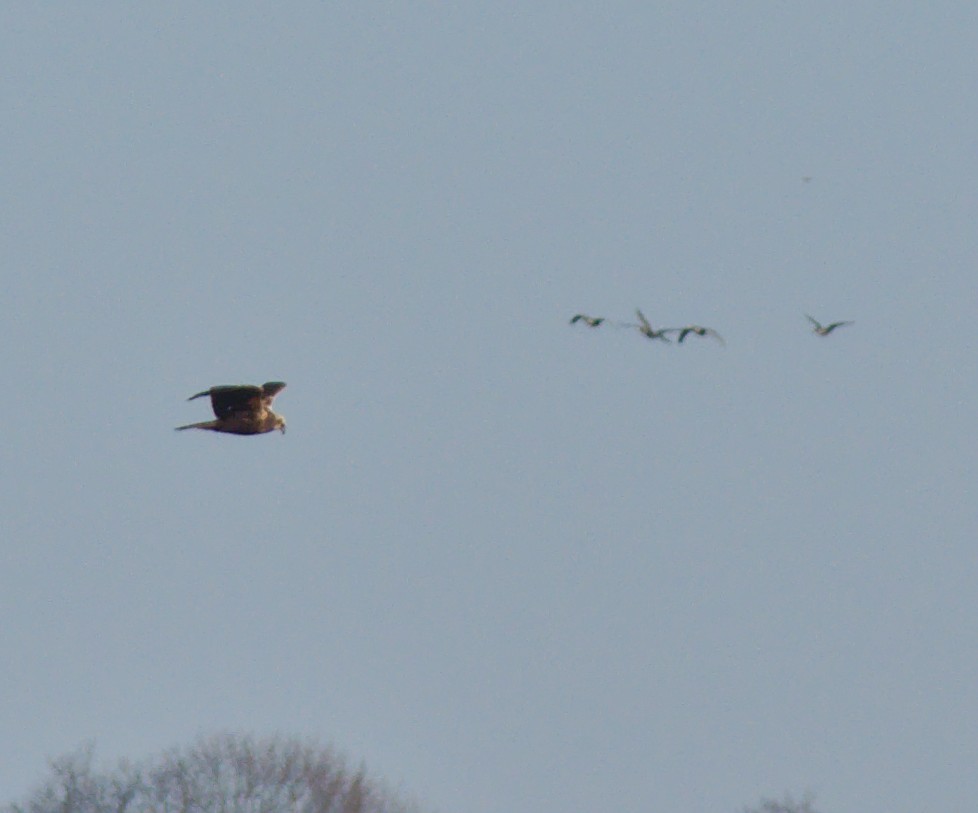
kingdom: Animalia
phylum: Chordata
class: Aves
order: Accipitriformes
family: Accipitridae
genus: Circus
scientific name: Circus aeruginosus
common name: Western marsh harrier
